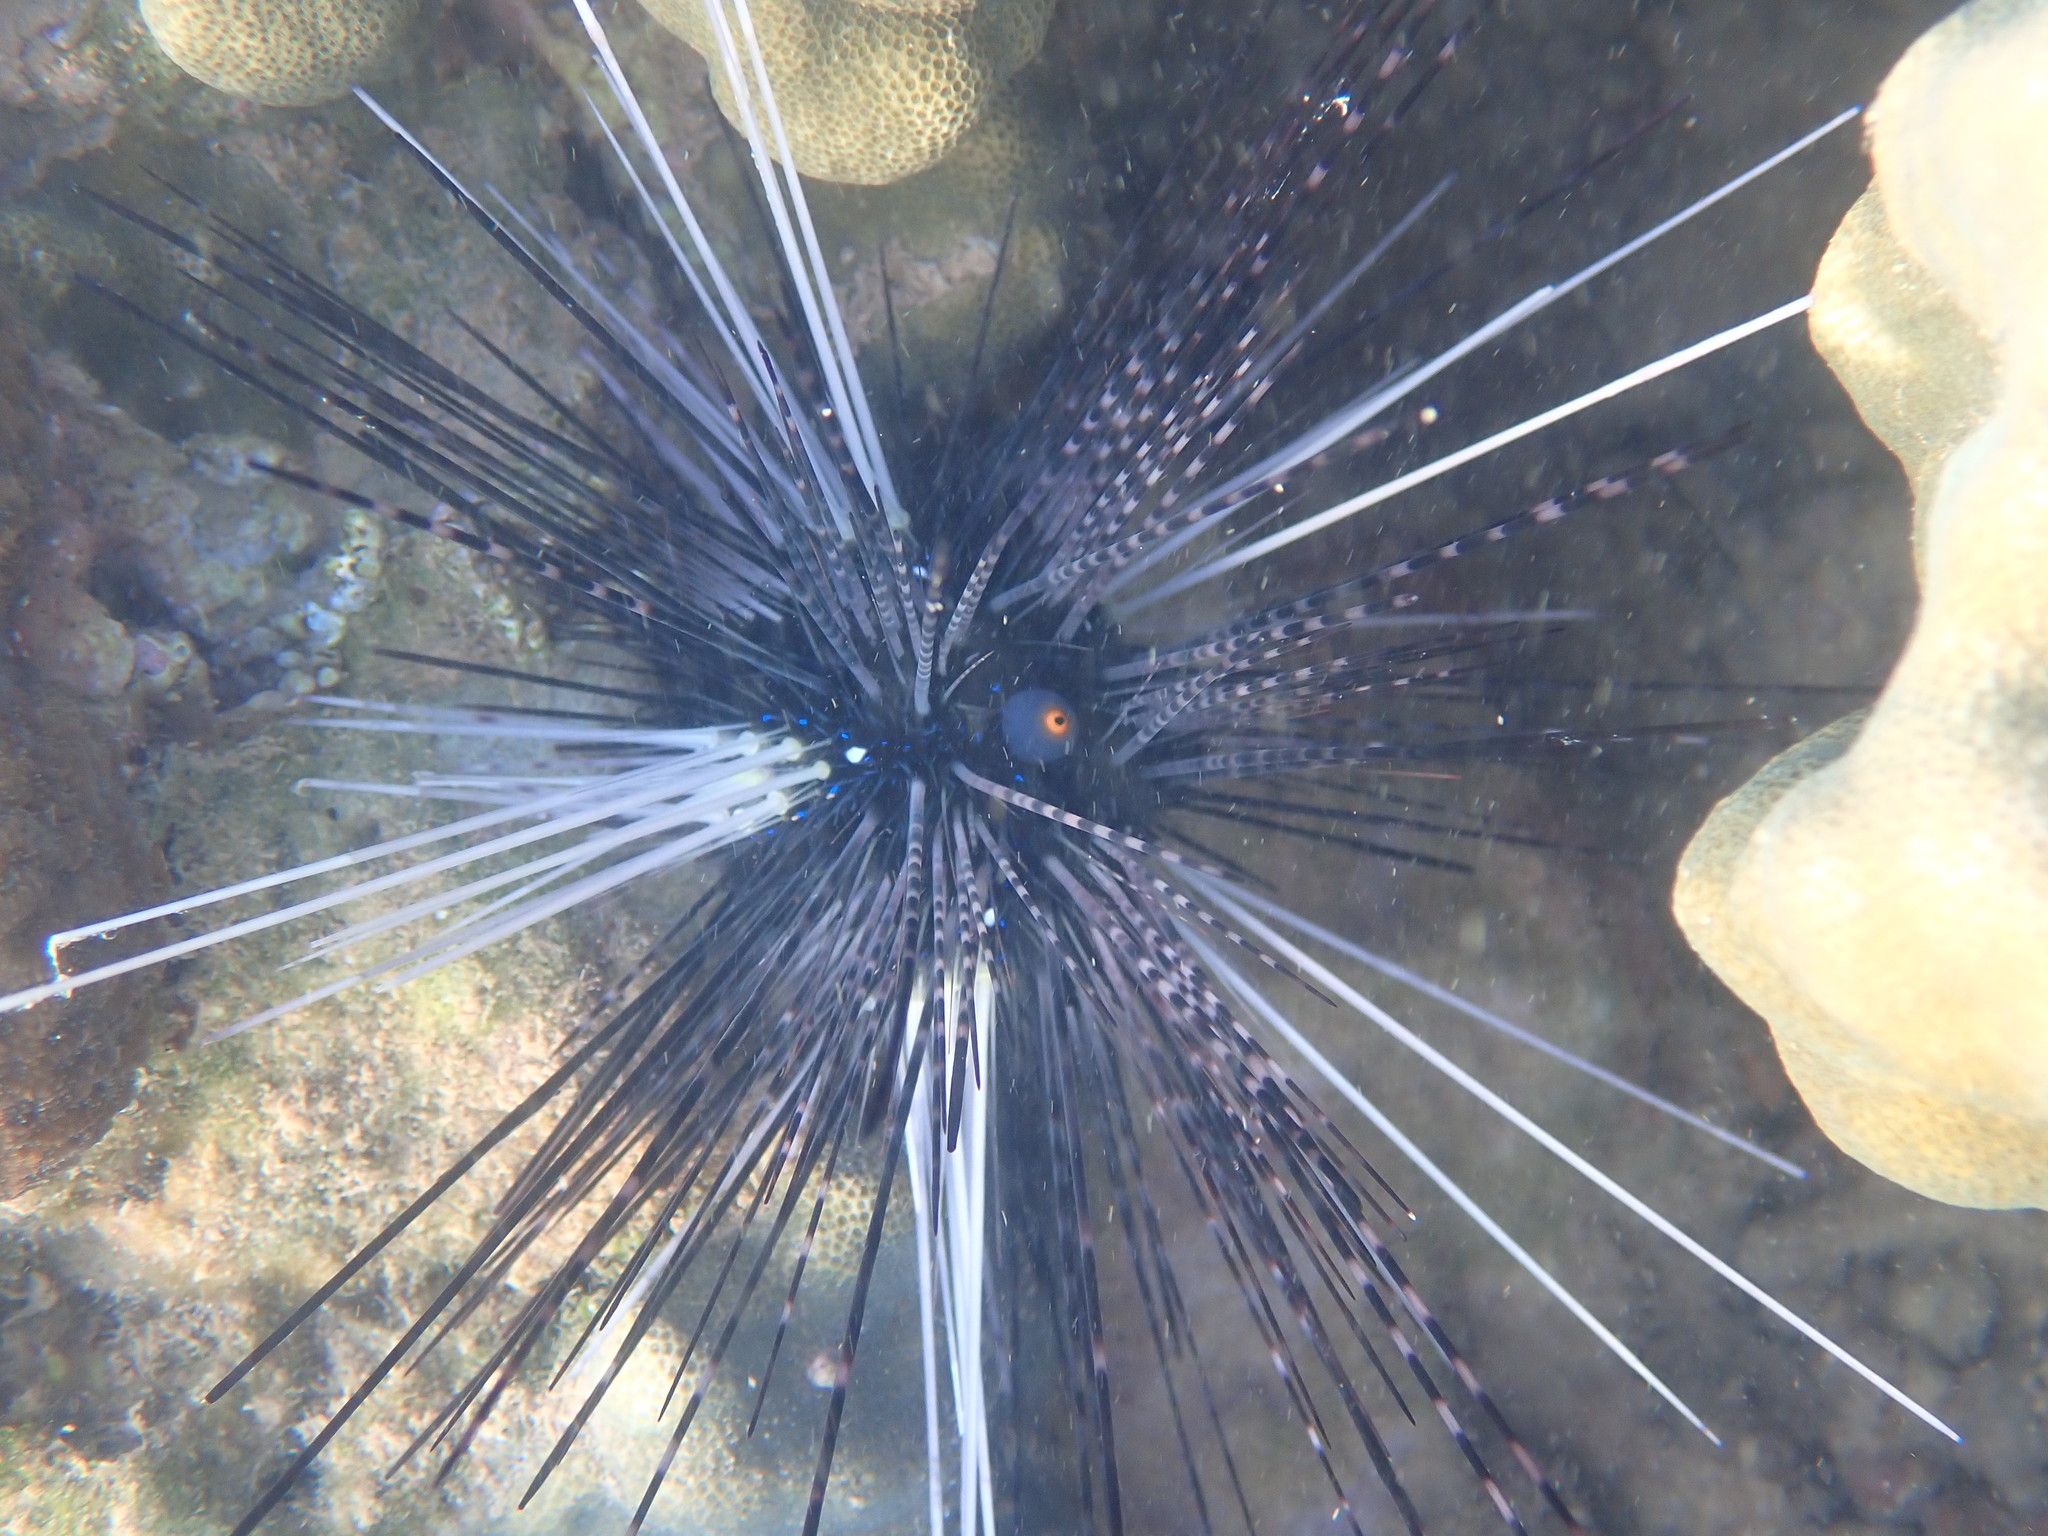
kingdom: Animalia
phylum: Echinodermata
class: Echinoidea
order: Diadematoida
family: Diadematidae
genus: Diadema
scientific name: Diadema setosum
